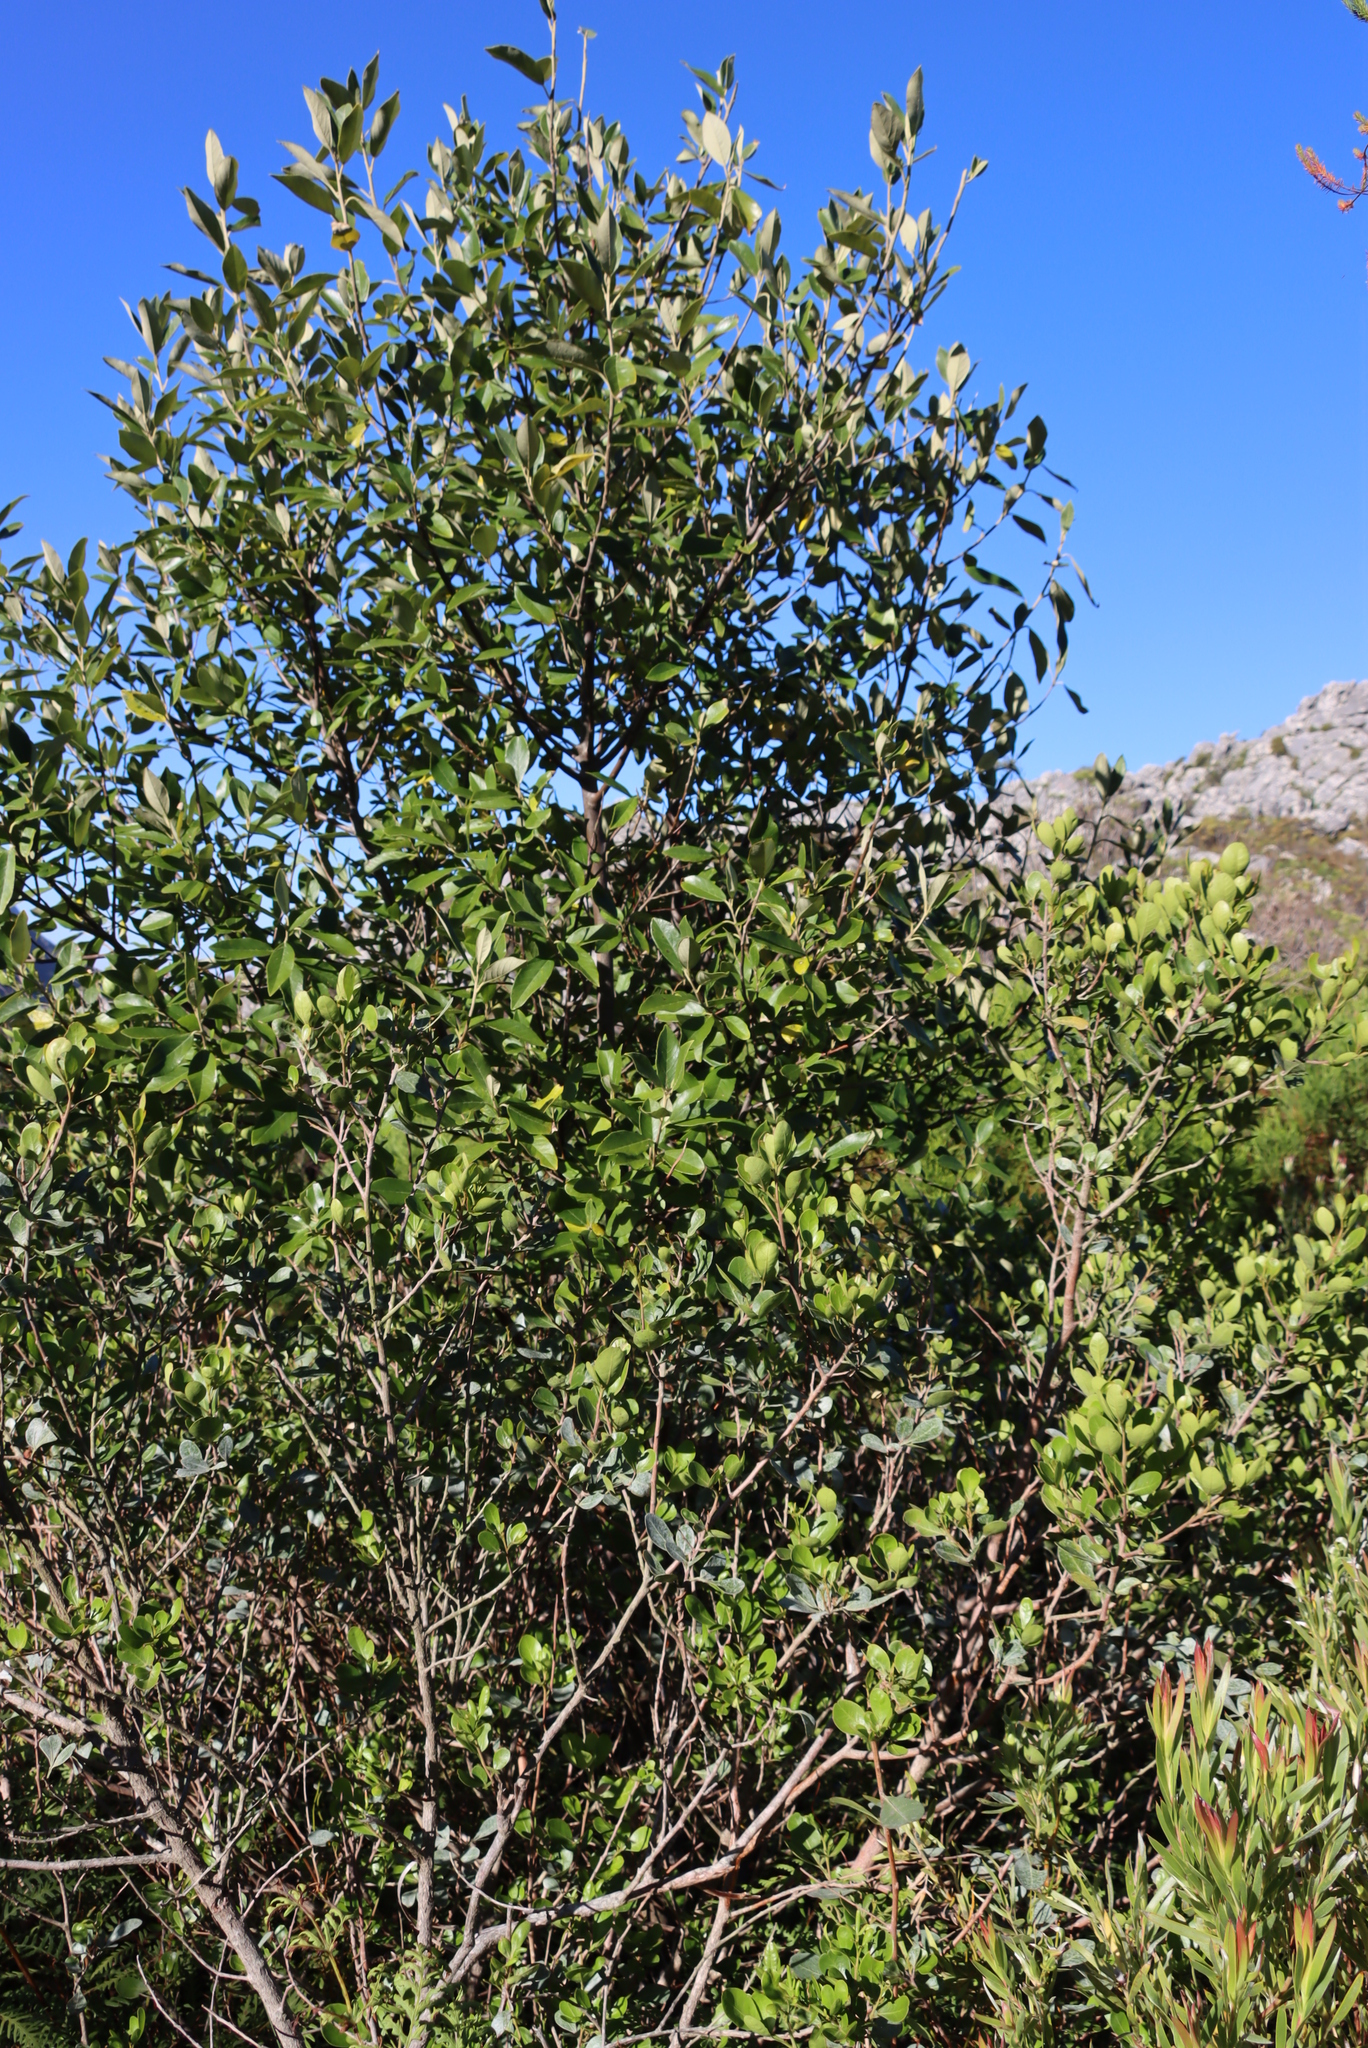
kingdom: Plantae
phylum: Tracheophyta
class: Magnoliopsida
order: Malpighiales
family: Achariaceae
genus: Kiggelaria
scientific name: Kiggelaria africana
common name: Wild peach
